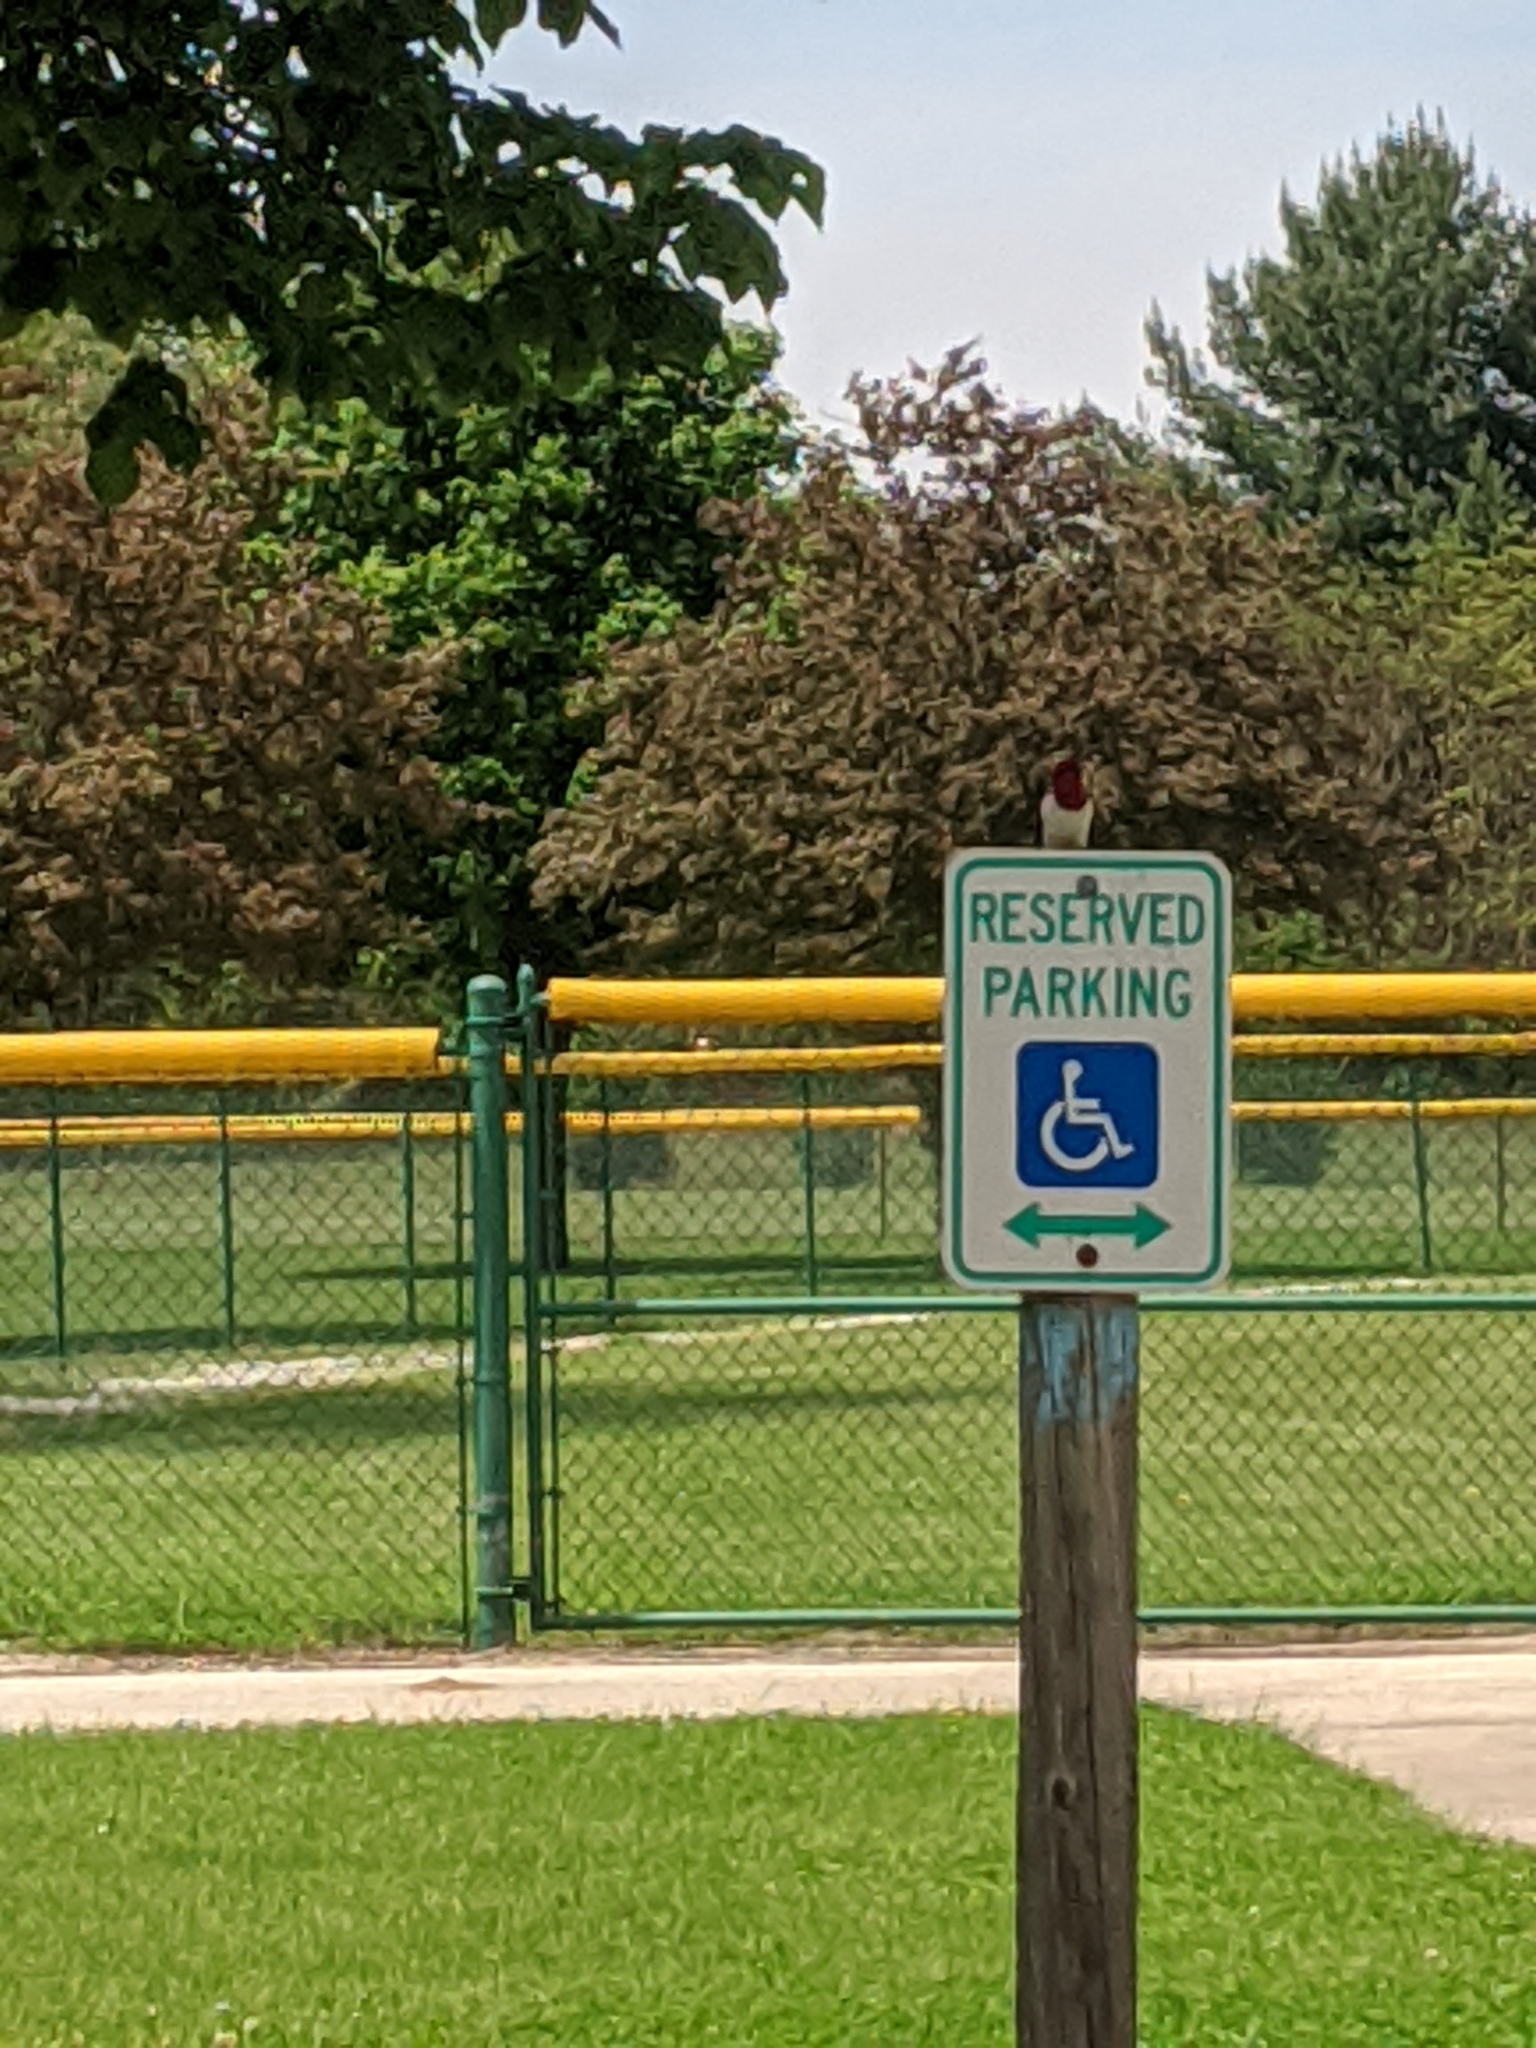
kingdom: Animalia
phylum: Chordata
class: Aves
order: Piciformes
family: Picidae
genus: Melanerpes
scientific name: Melanerpes erythrocephalus
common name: Red-headed woodpecker
